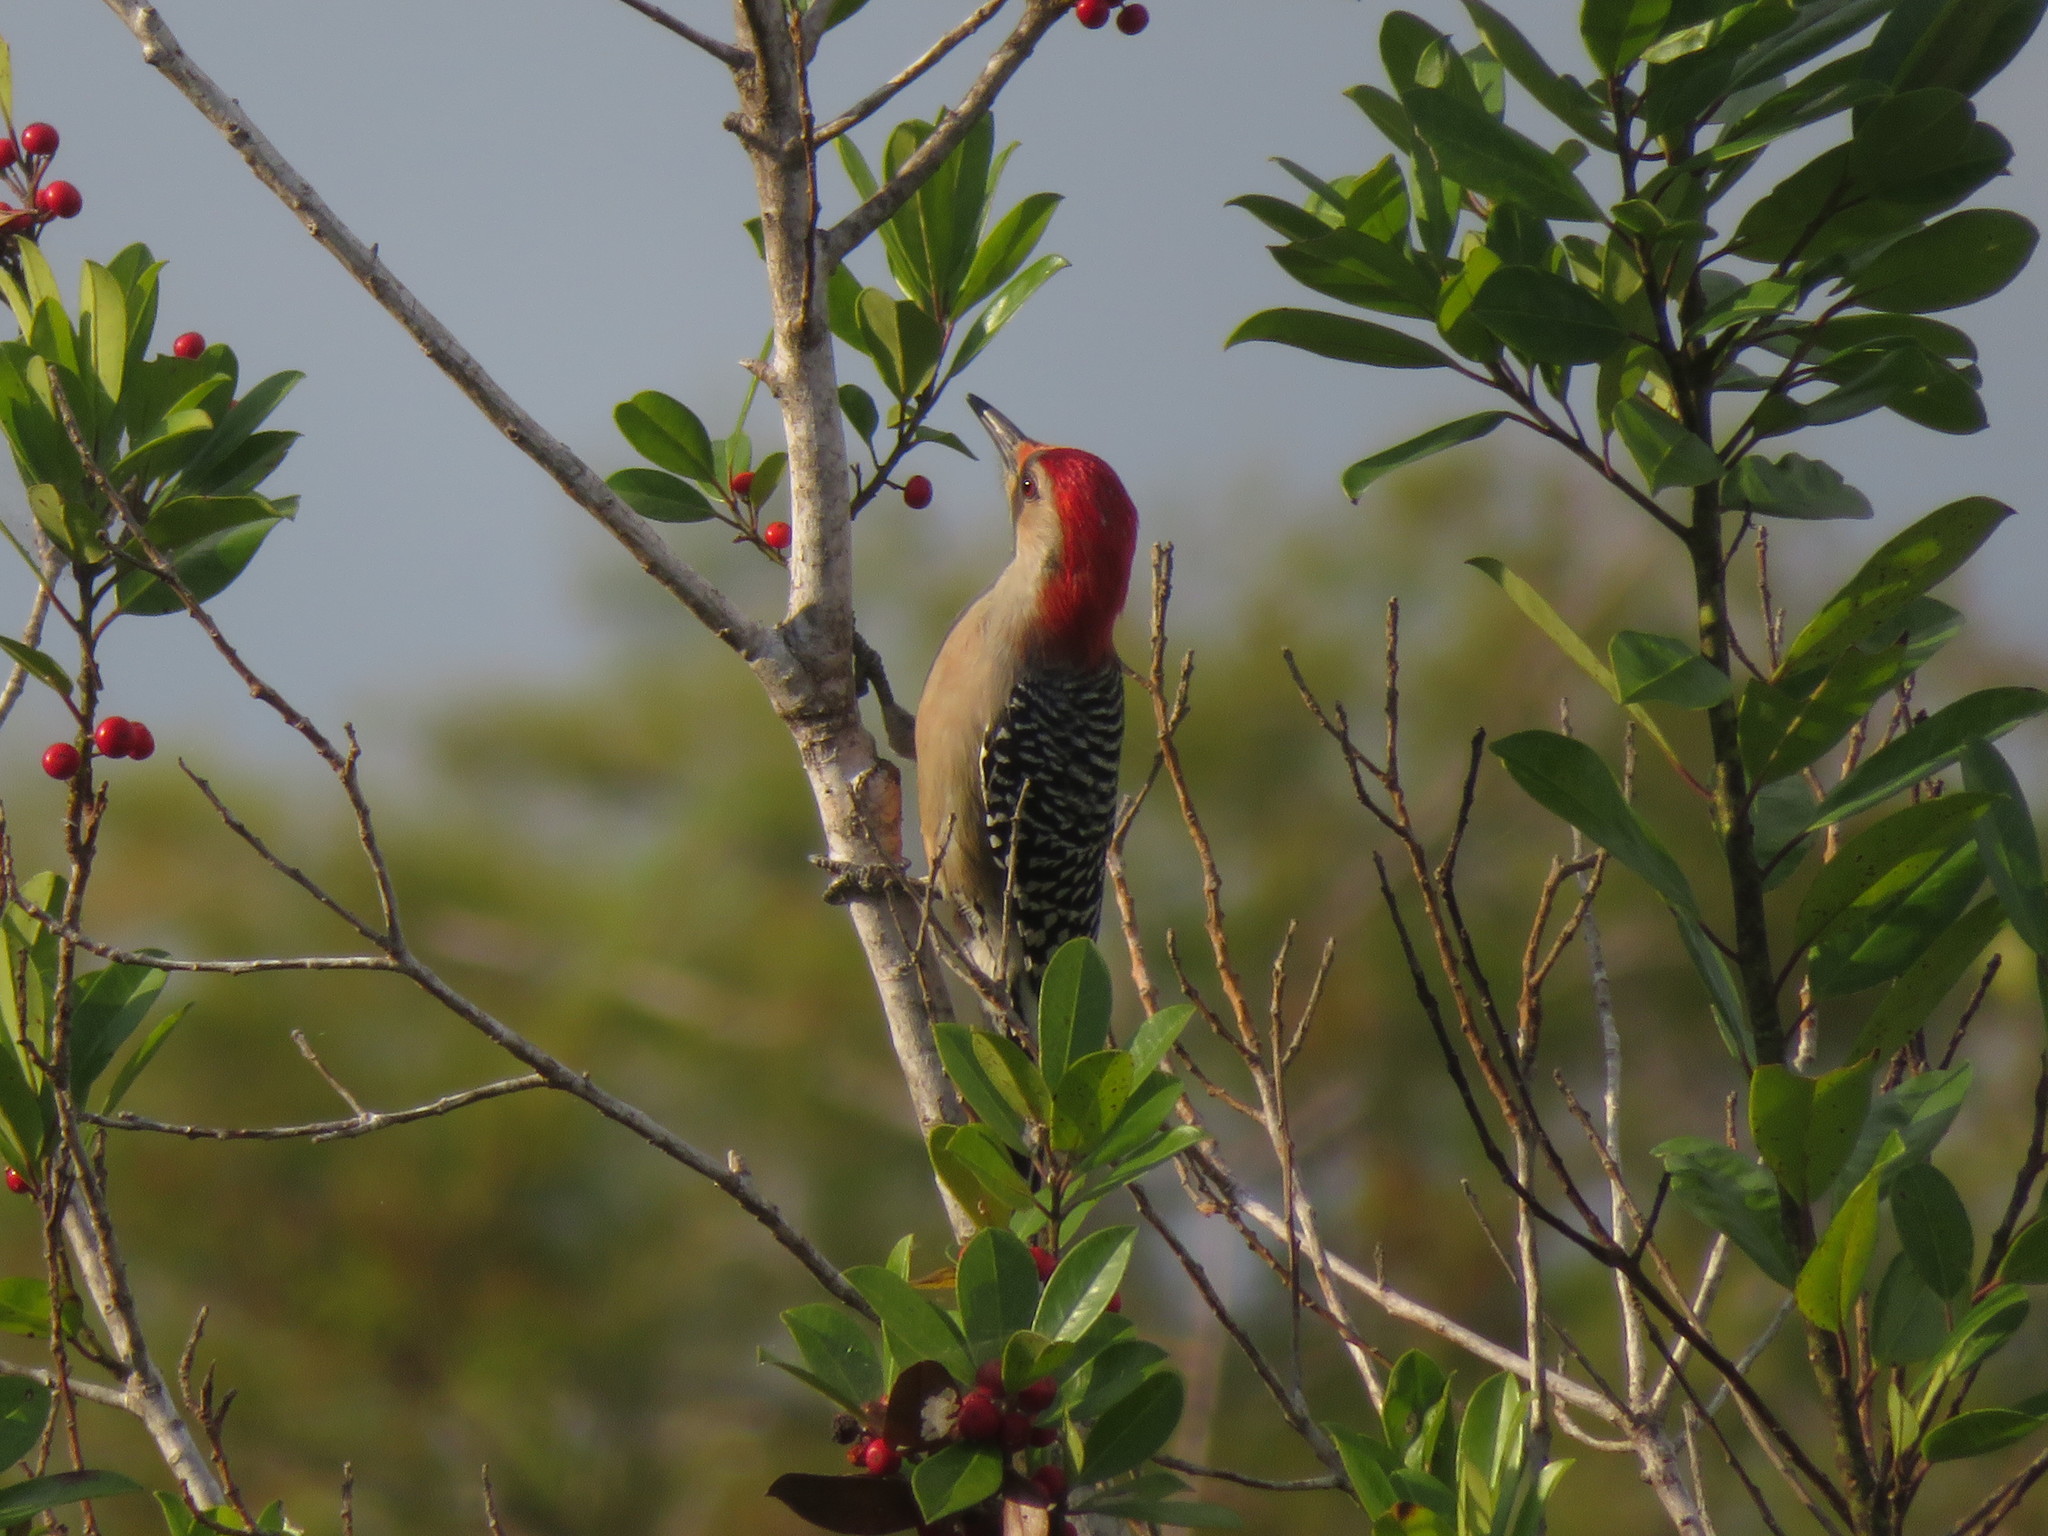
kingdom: Animalia
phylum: Chordata
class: Aves
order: Piciformes
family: Picidae
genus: Melanerpes
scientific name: Melanerpes carolinus
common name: Red-bellied woodpecker
